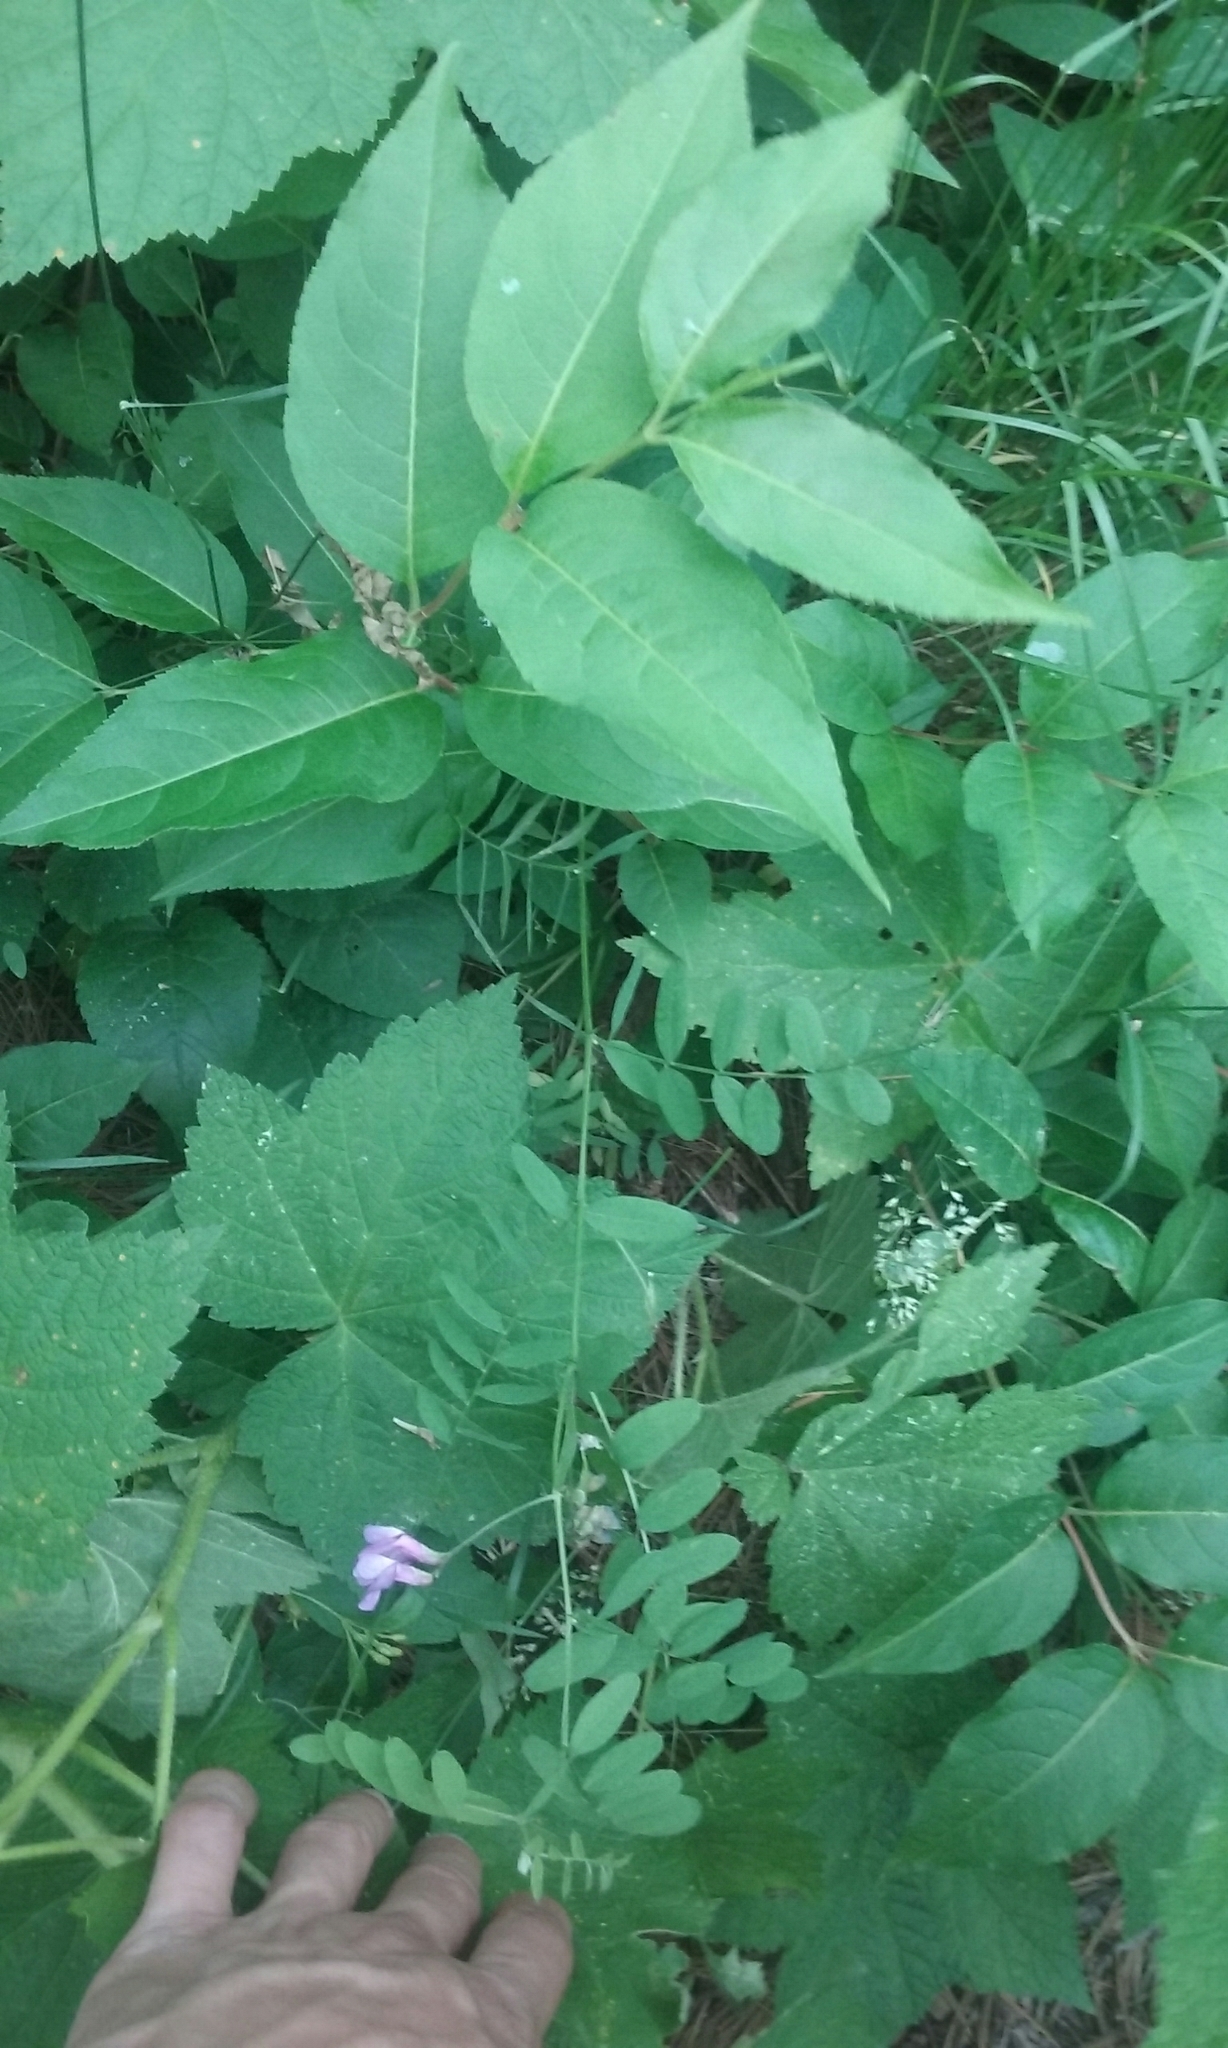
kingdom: Plantae
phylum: Tracheophyta
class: Magnoliopsida
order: Fabales
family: Fabaceae
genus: Vicia
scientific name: Vicia americana
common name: American vetch
